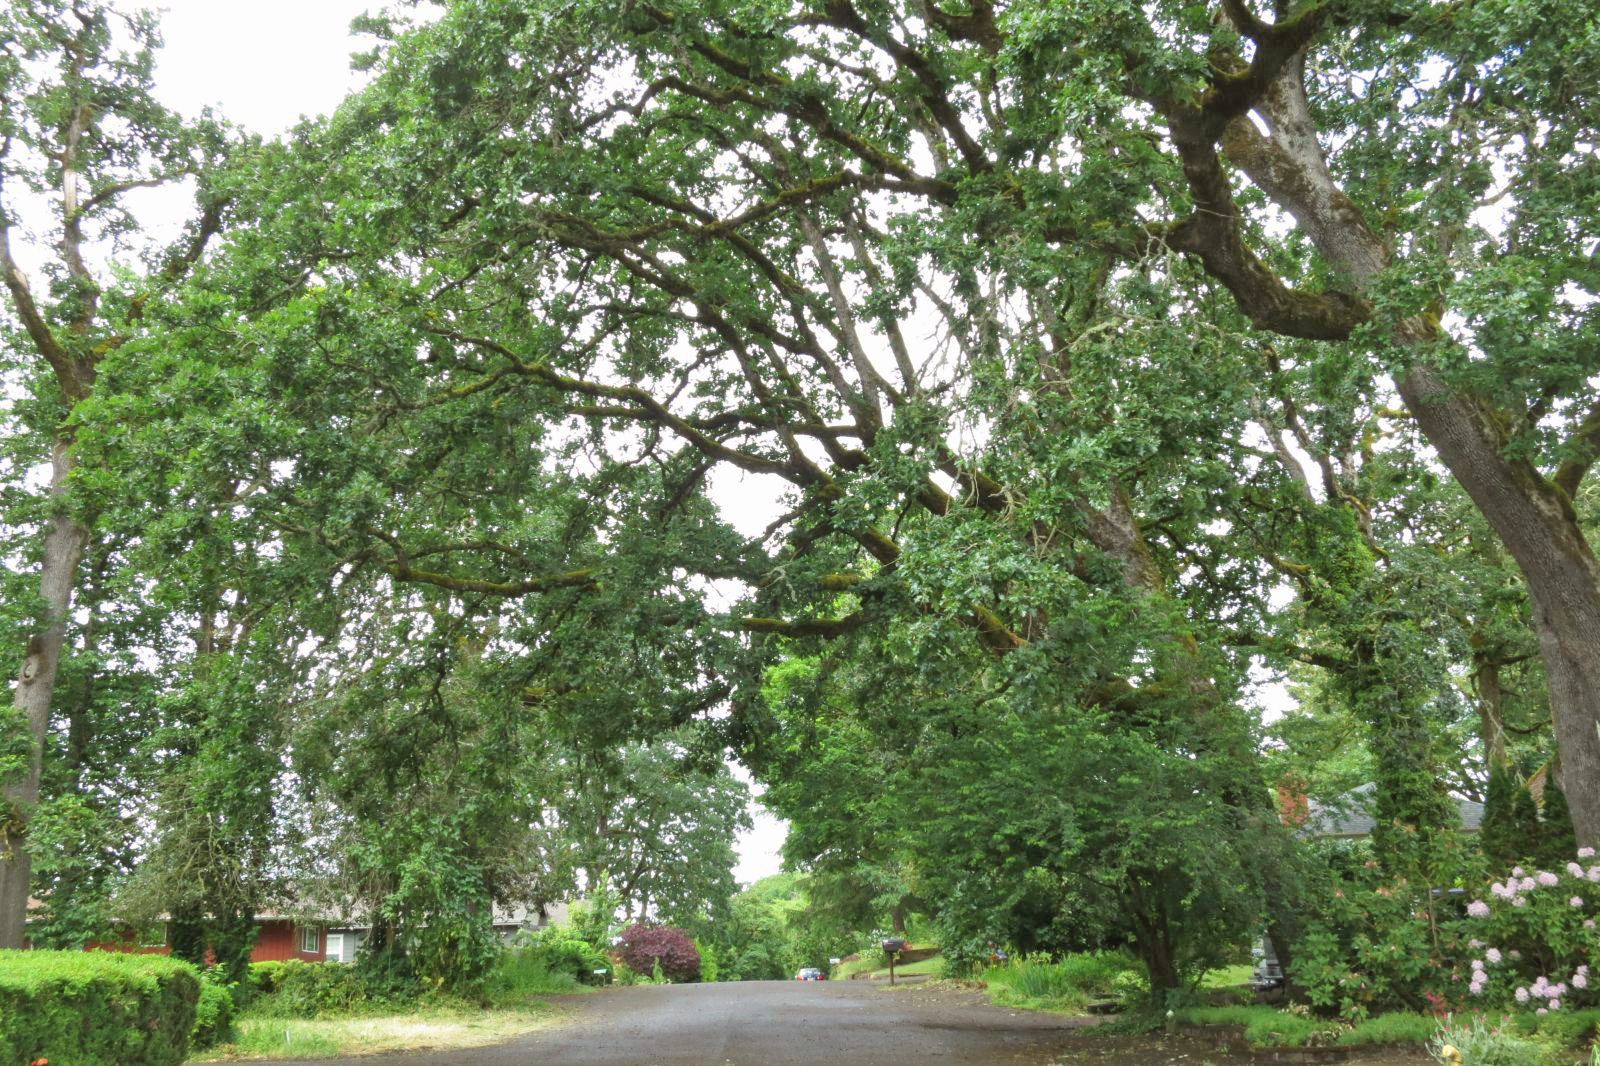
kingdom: Plantae
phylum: Tracheophyta
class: Magnoliopsida
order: Fagales
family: Fagaceae
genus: Quercus
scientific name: Quercus garryana
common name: Garry oak
